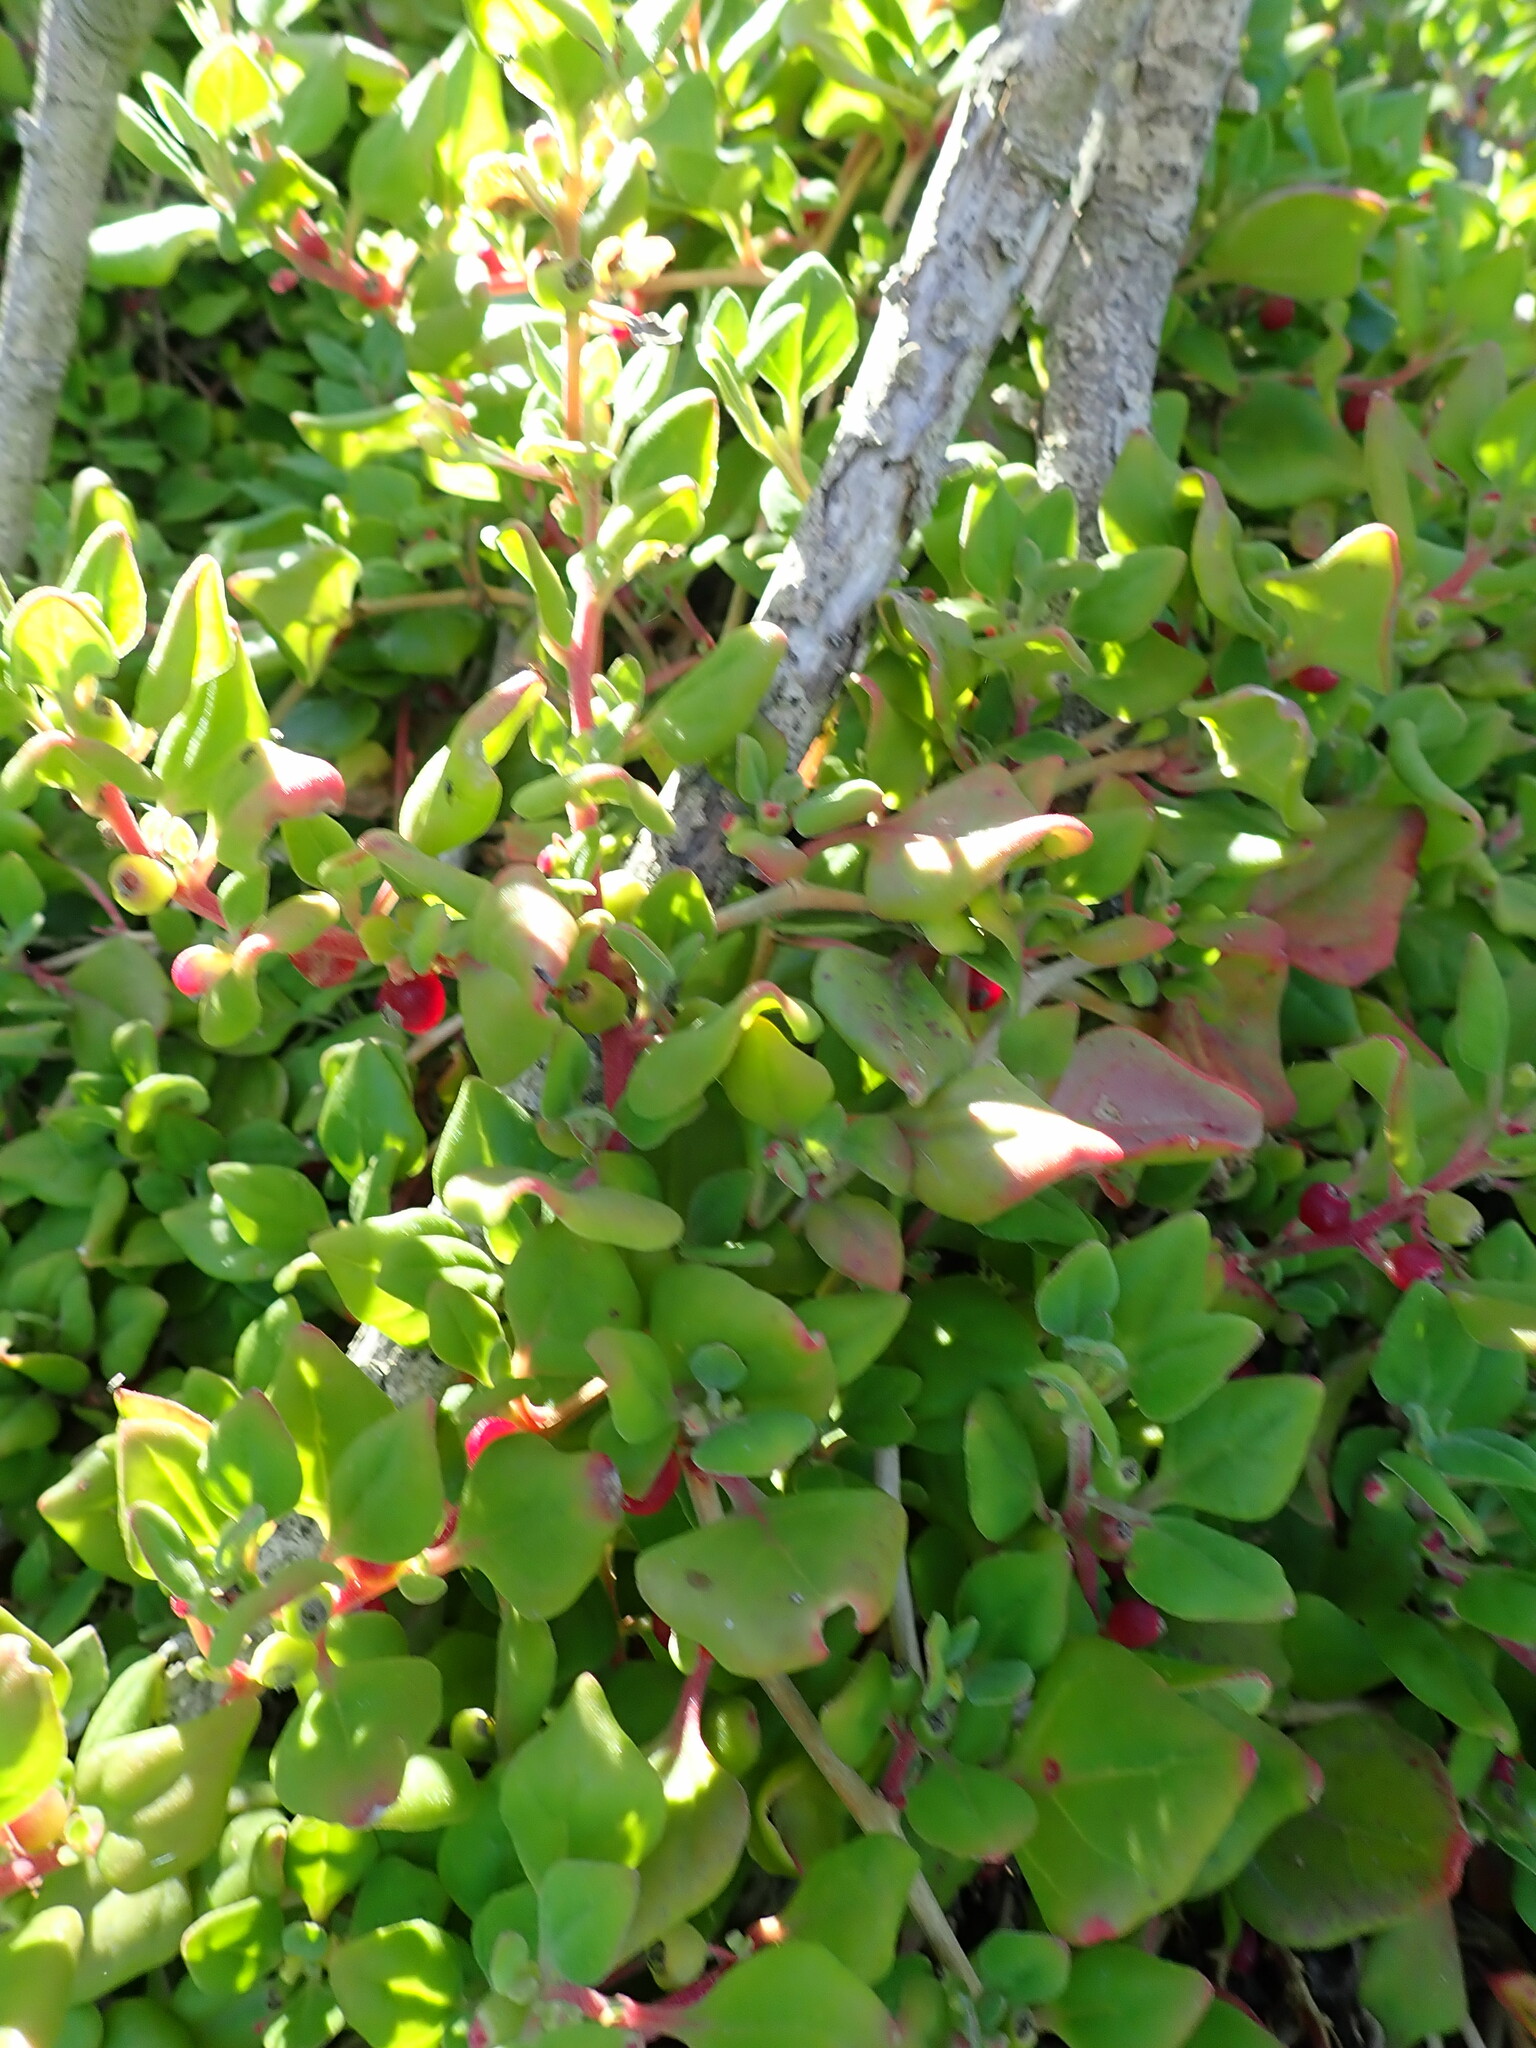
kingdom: Plantae
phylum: Tracheophyta
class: Magnoliopsida
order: Caryophyllales
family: Aizoaceae
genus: Tetragonia
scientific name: Tetragonia implexicoma
